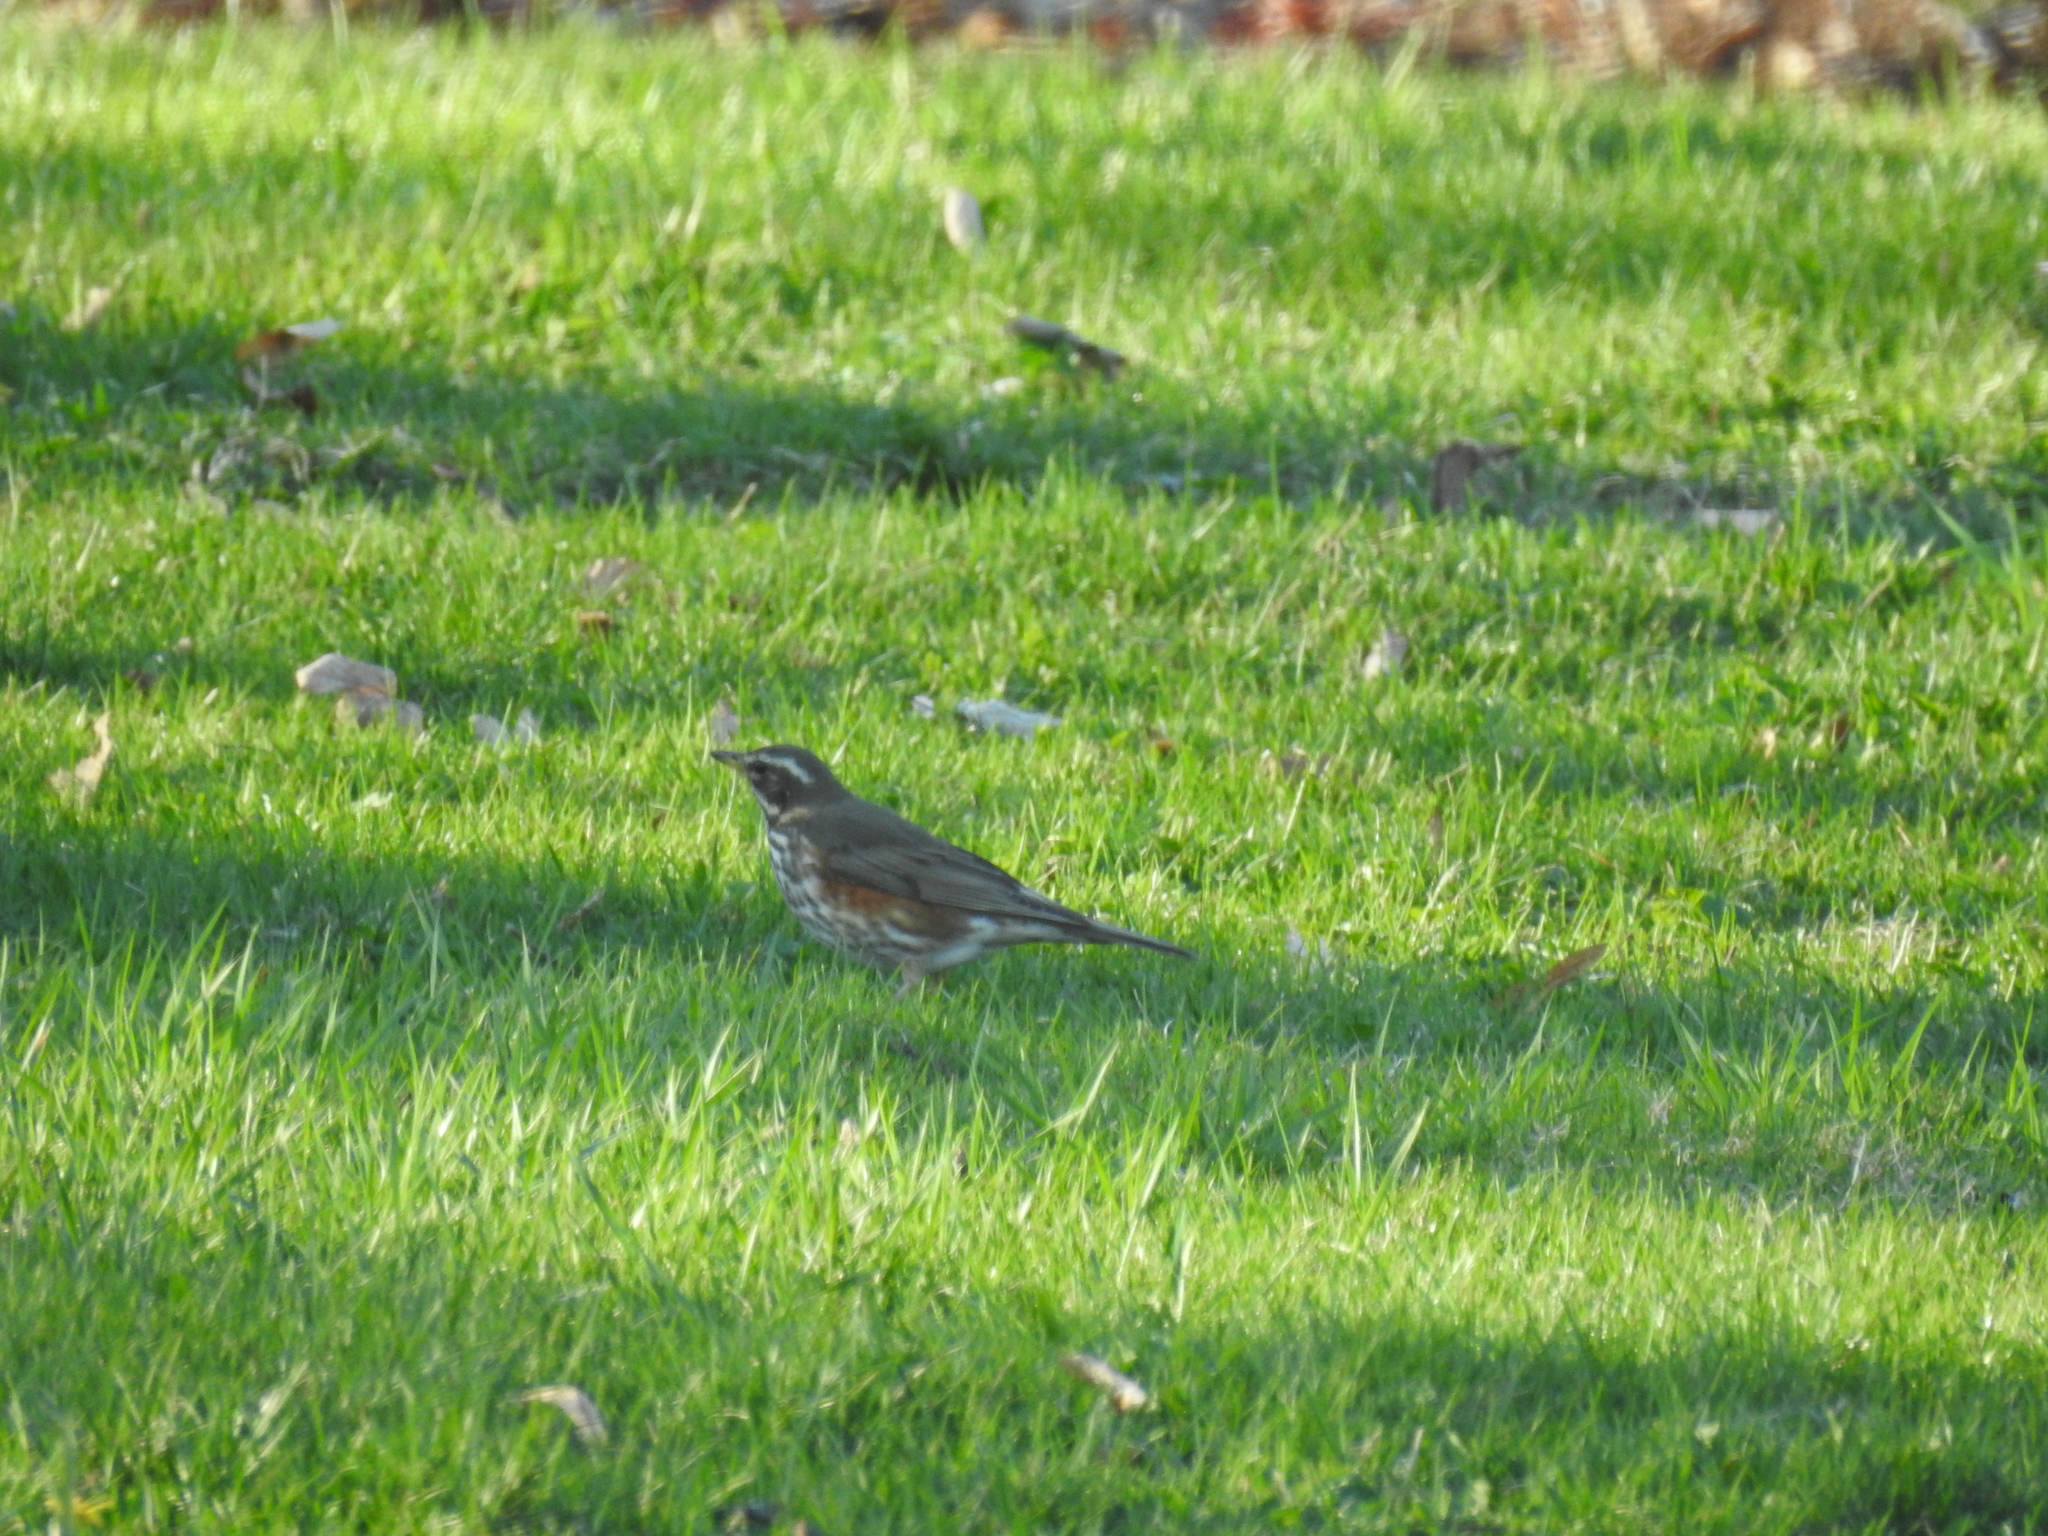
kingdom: Animalia
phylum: Chordata
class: Aves
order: Passeriformes
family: Turdidae
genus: Turdus
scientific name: Turdus iliacus
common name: Redwing
